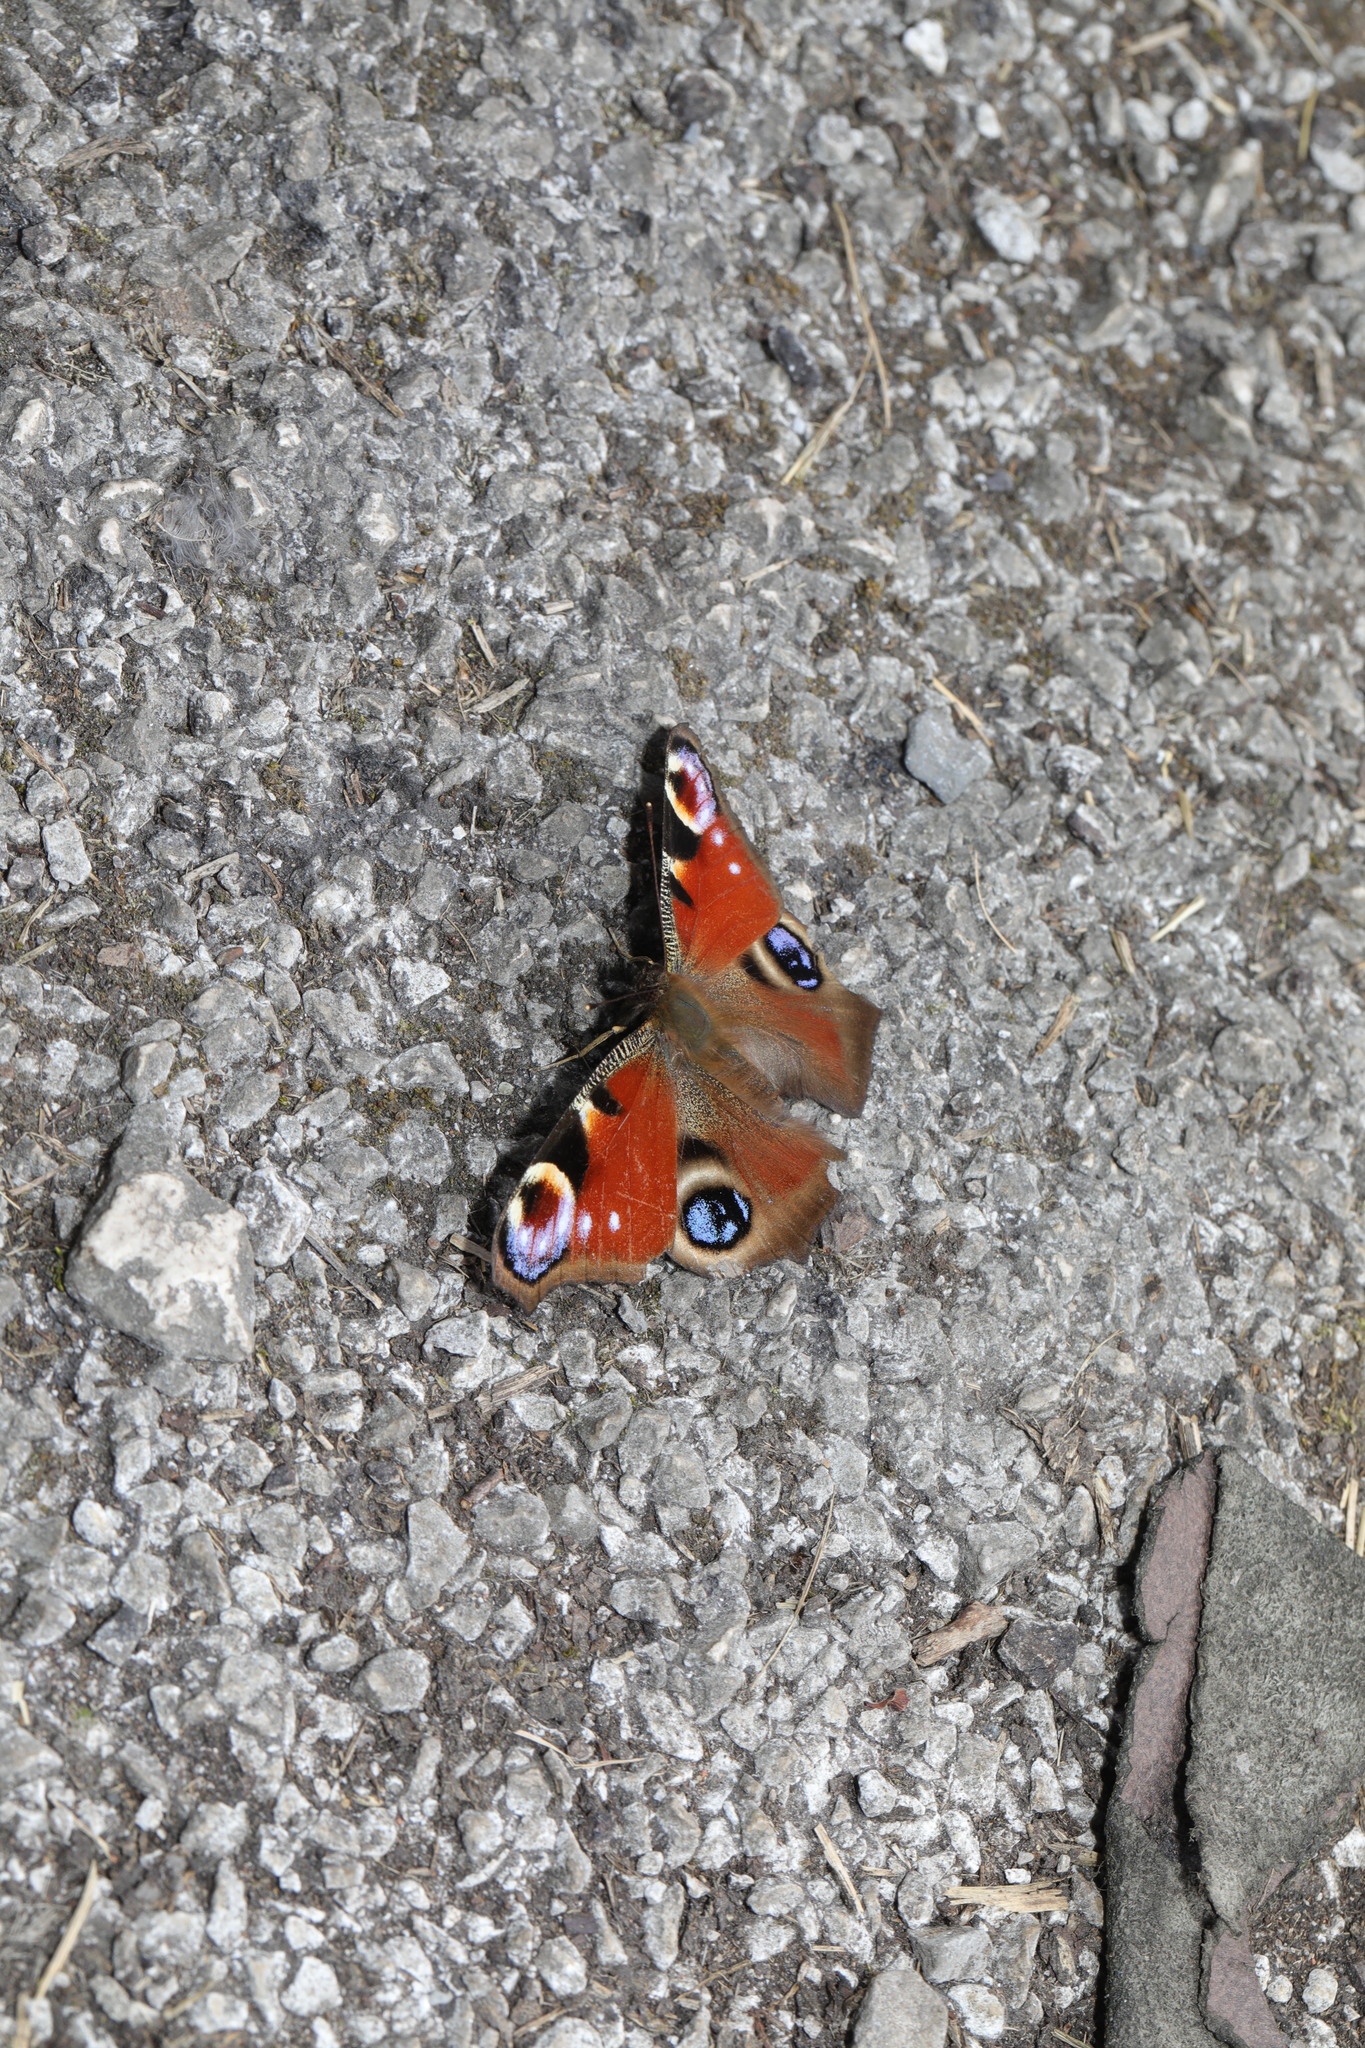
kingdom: Animalia
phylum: Arthropoda
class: Insecta
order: Lepidoptera
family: Nymphalidae
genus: Aglais
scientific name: Aglais io
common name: Peacock
